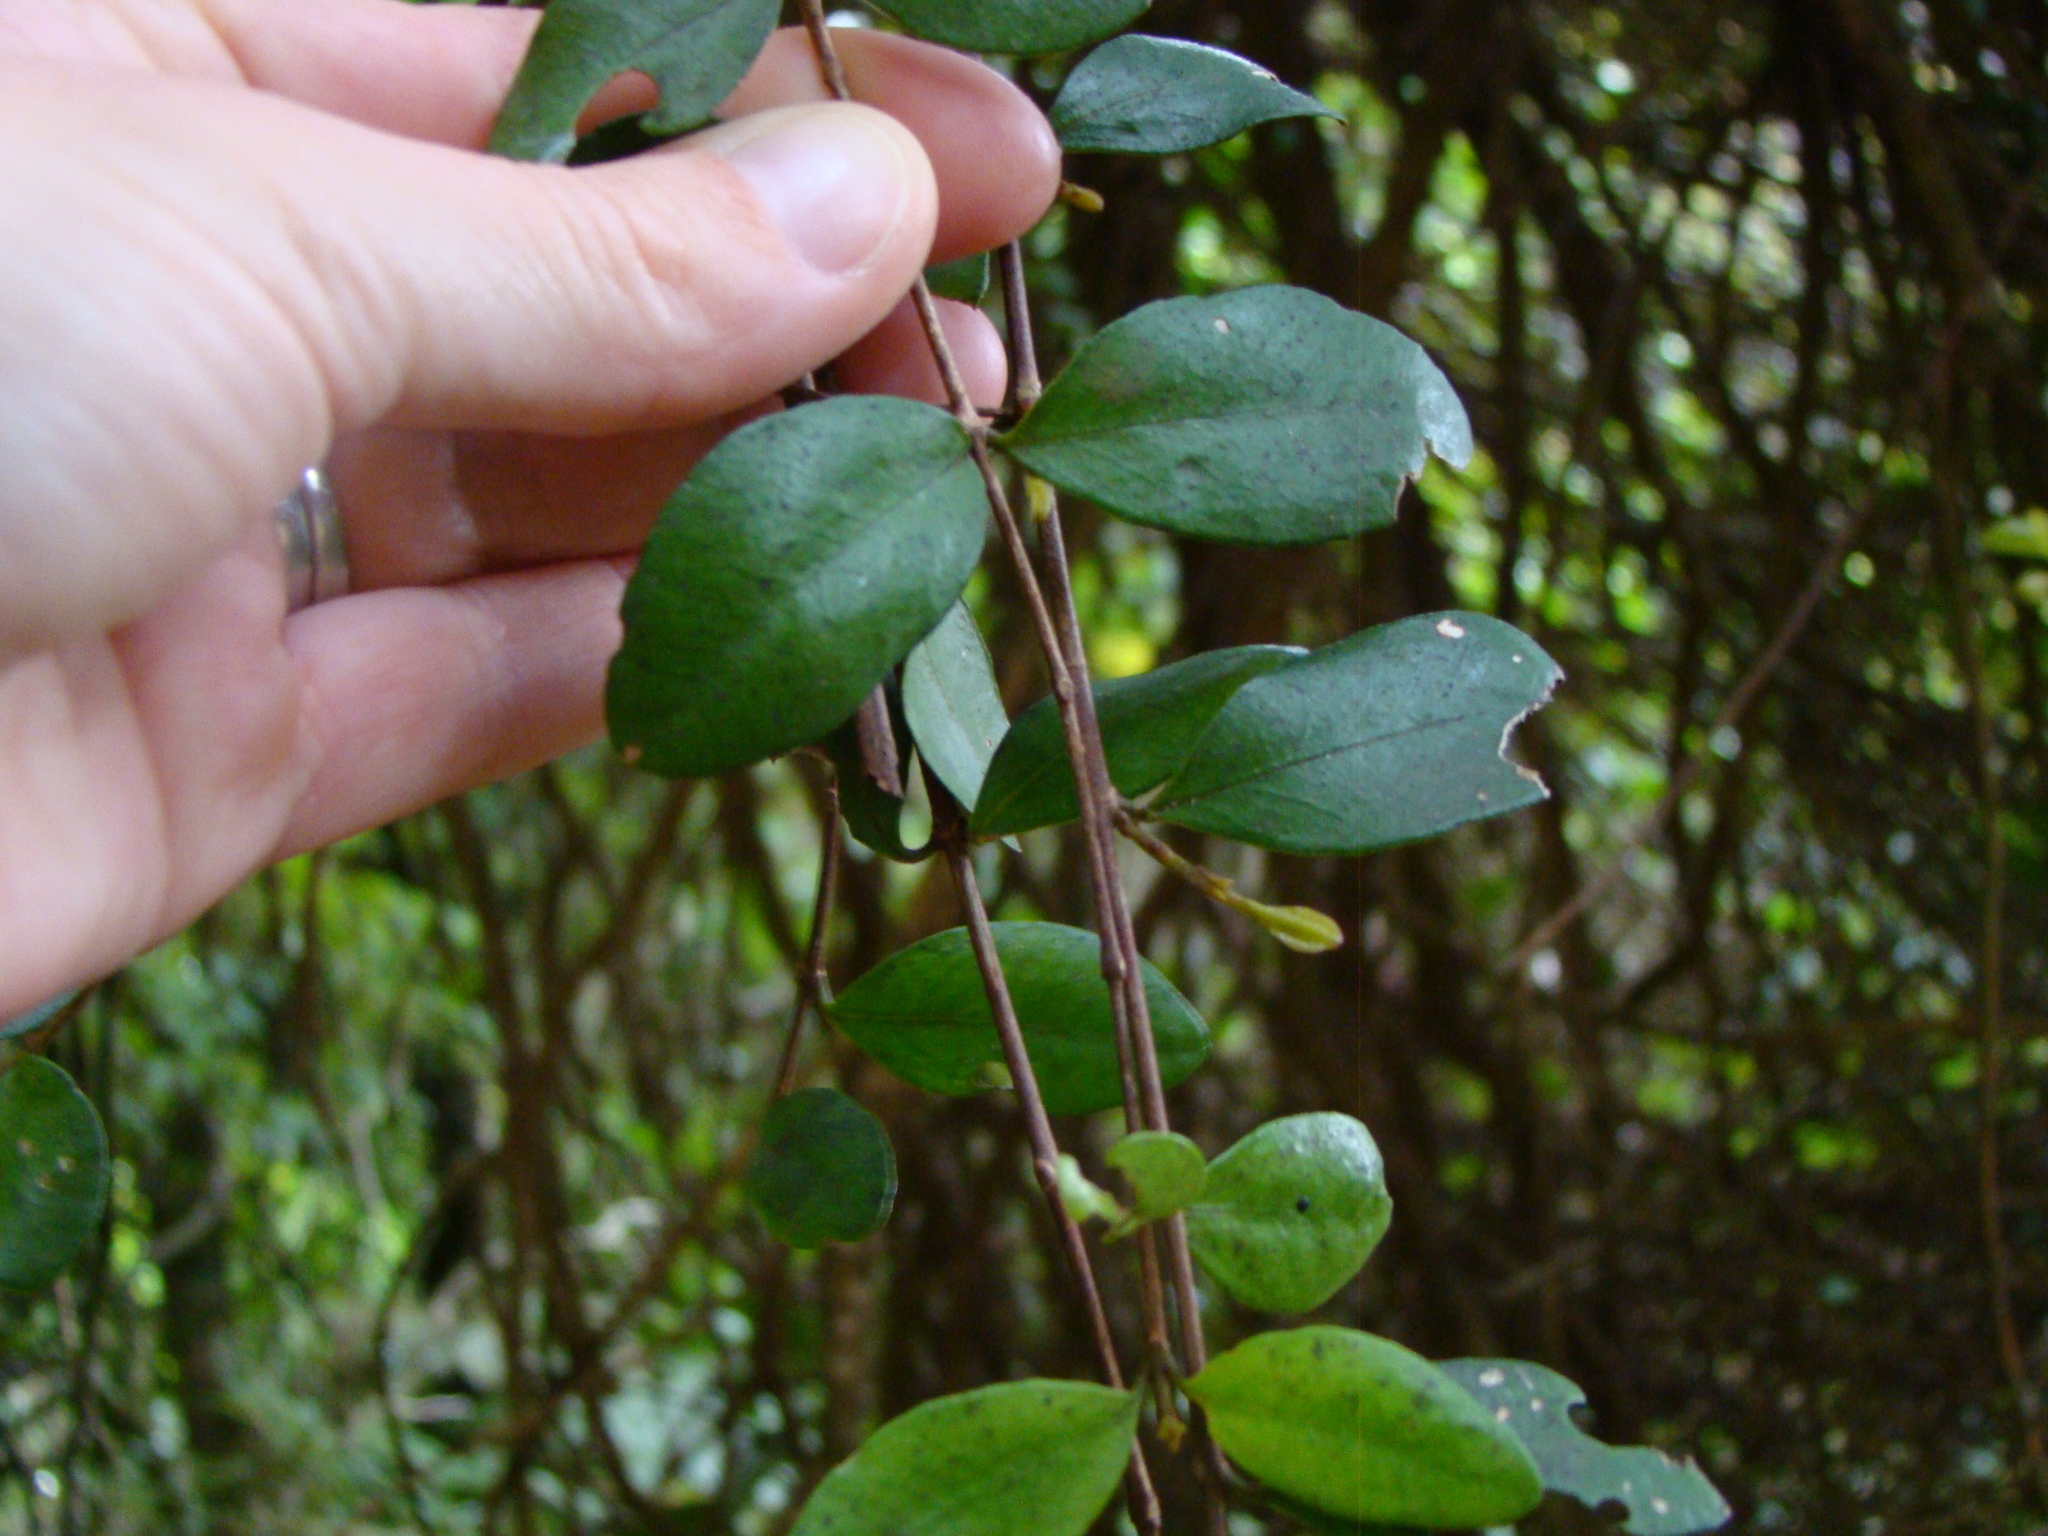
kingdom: Plantae
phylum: Tracheophyta
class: Magnoliopsida
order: Myrtales
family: Myrtaceae
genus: Metrosideros
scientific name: Metrosideros fulgens
